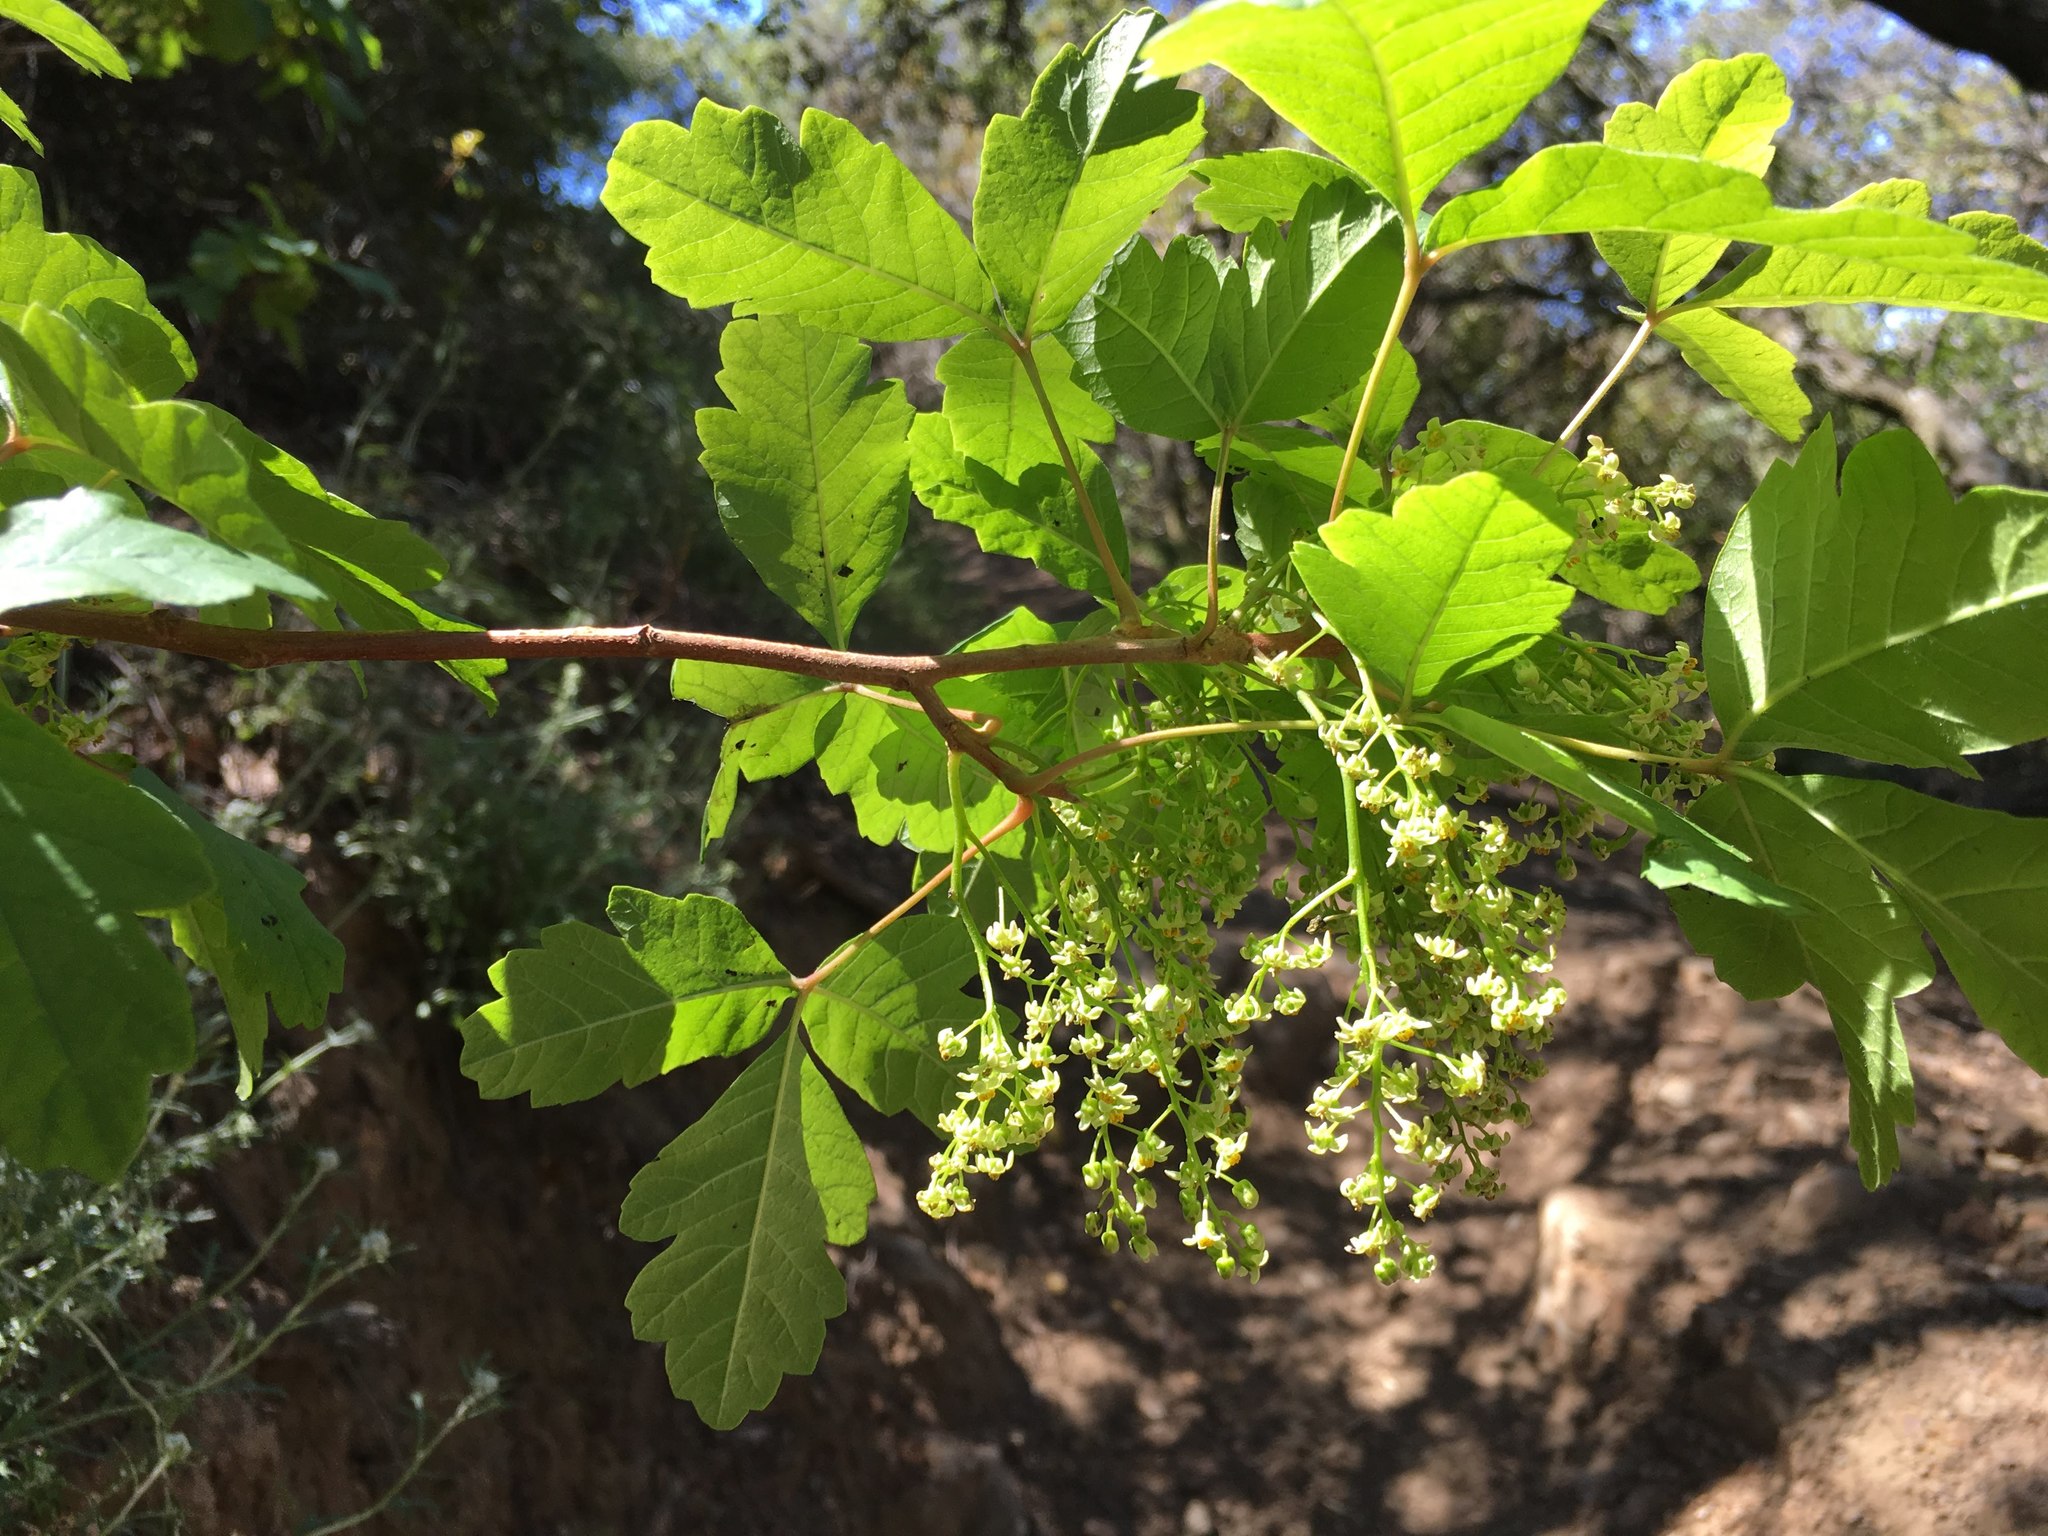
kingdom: Plantae
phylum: Tracheophyta
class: Magnoliopsida
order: Sapindales
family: Anacardiaceae
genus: Toxicodendron
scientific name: Toxicodendron diversilobum
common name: Pacific poison-oak
